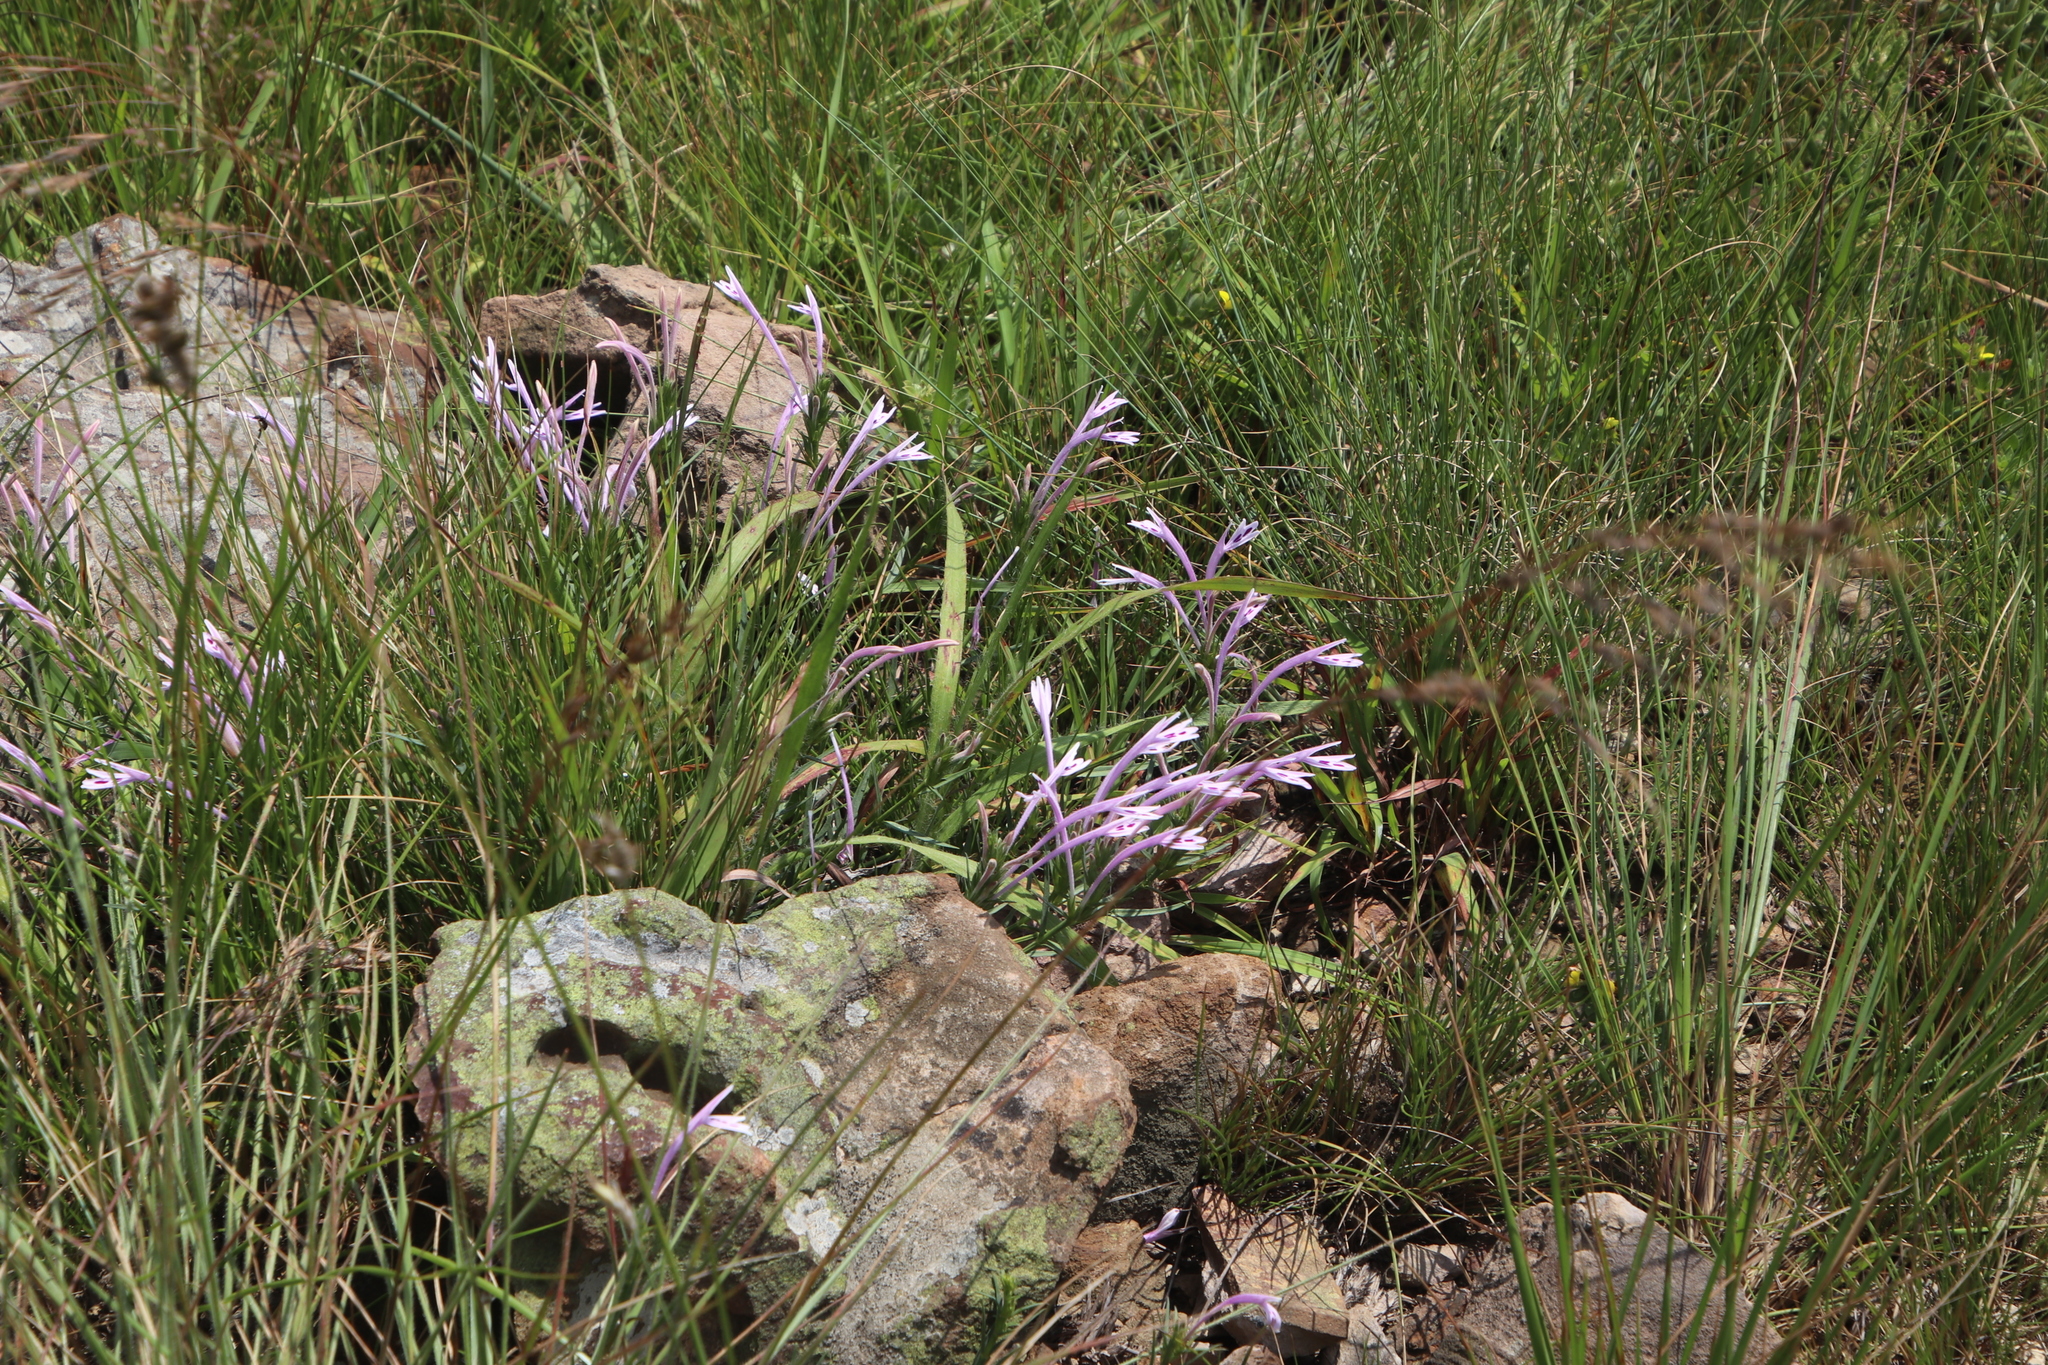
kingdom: Plantae
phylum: Tracheophyta
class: Magnoliopsida
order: Lamiales
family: Acanthaceae
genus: Justicia
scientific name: Justicia linifolia
